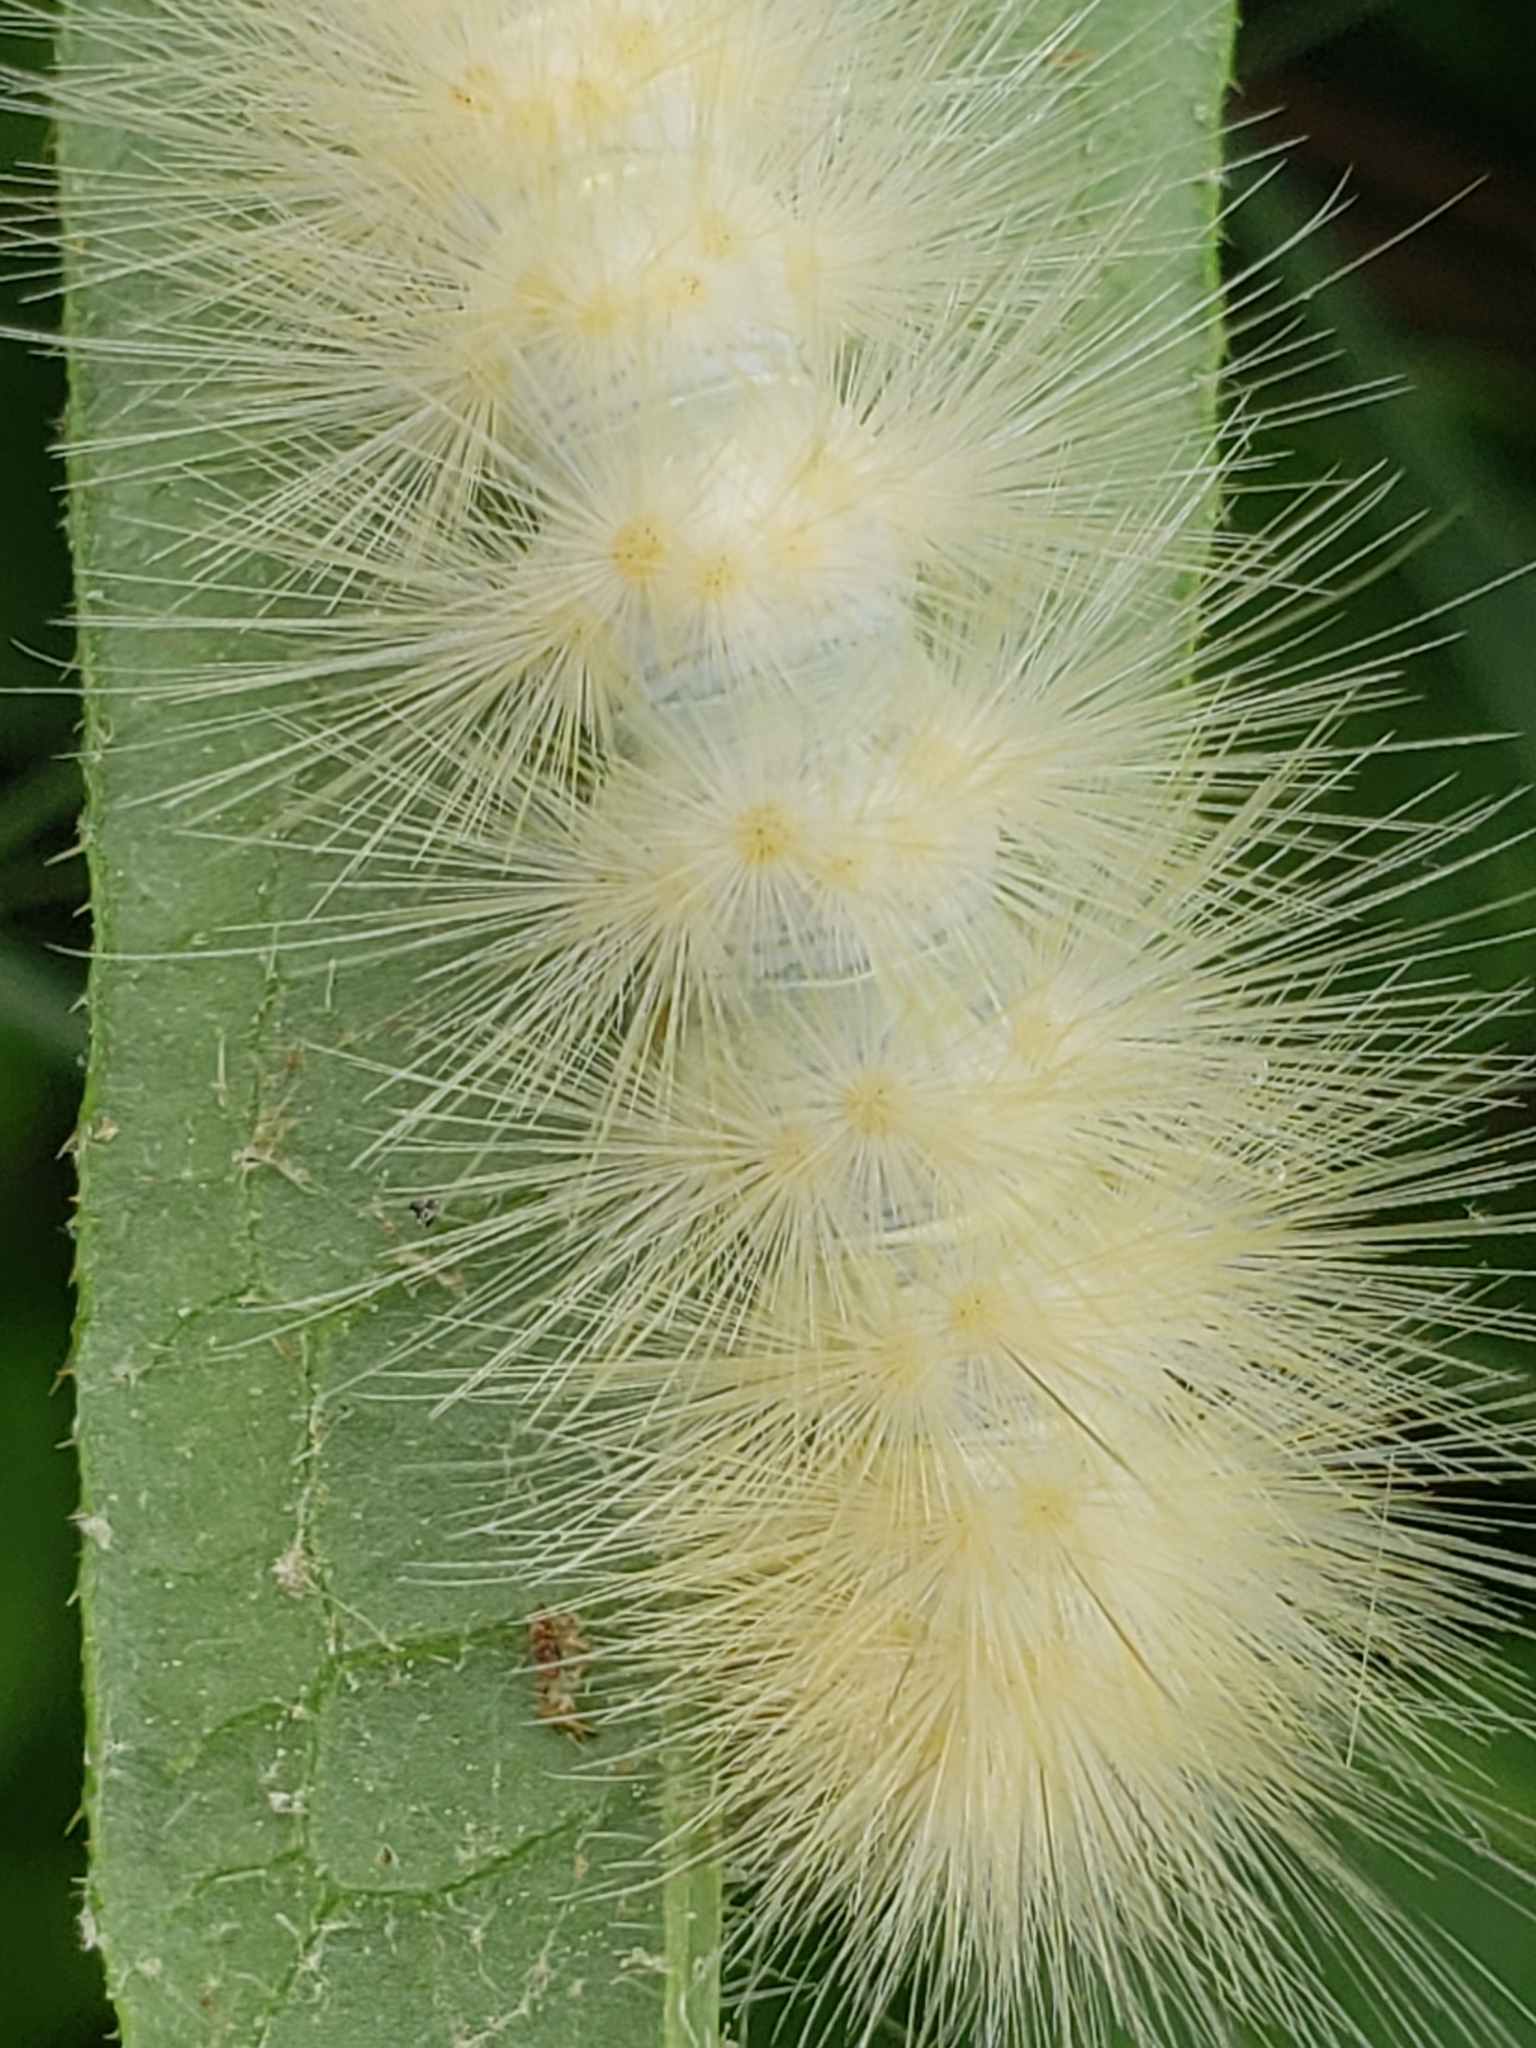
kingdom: Animalia
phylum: Arthropoda
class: Insecta
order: Lepidoptera
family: Erebidae
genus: Spilosoma
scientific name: Spilosoma virginica
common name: Virginia tiger moth
